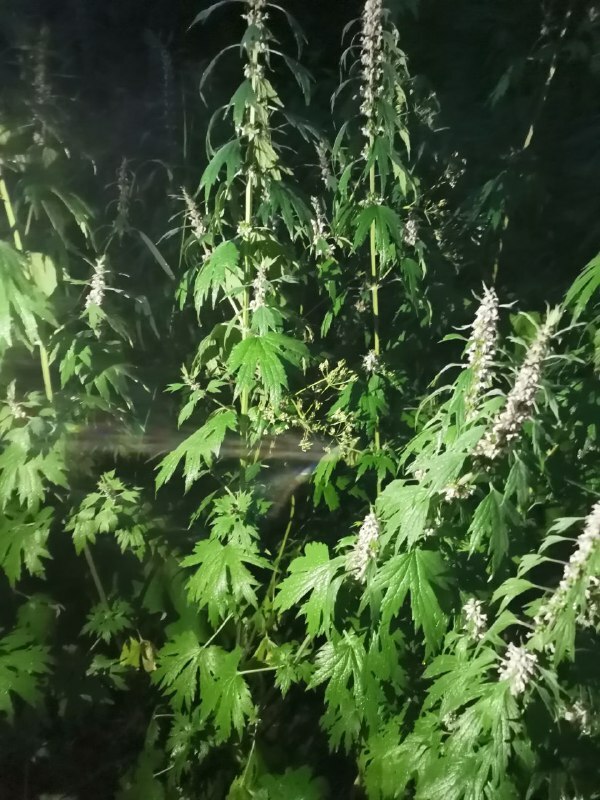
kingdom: Plantae
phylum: Tracheophyta
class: Magnoliopsida
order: Lamiales
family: Lamiaceae
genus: Leonurus
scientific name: Leonurus quinquelobatus
